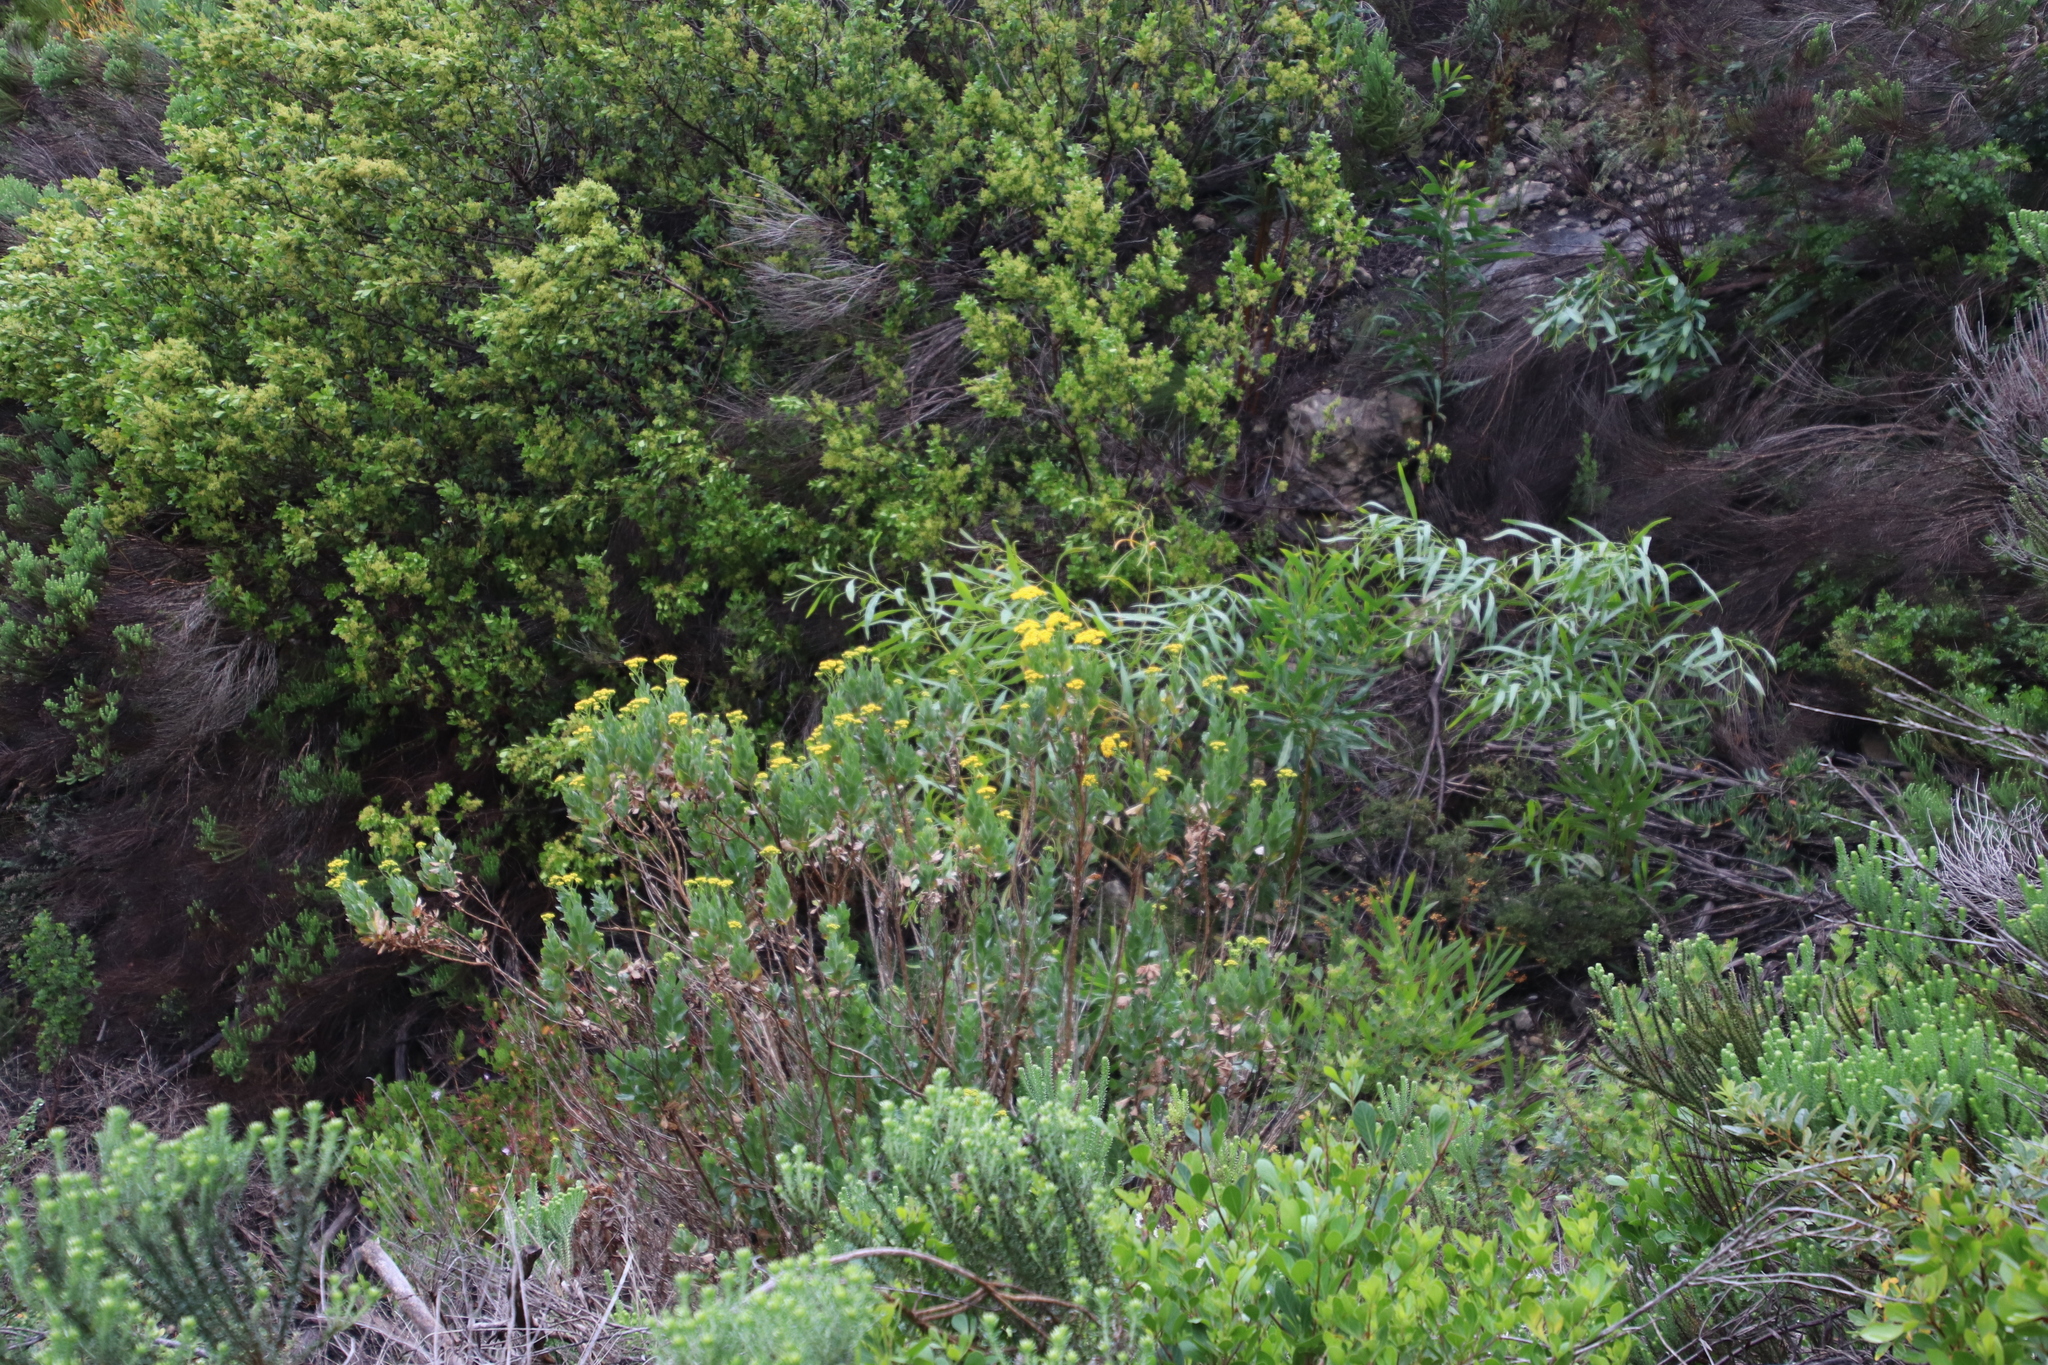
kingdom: Plantae
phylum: Tracheophyta
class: Magnoliopsida
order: Fabales
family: Fabaceae
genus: Acacia
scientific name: Acacia saligna
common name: Orange wattle
